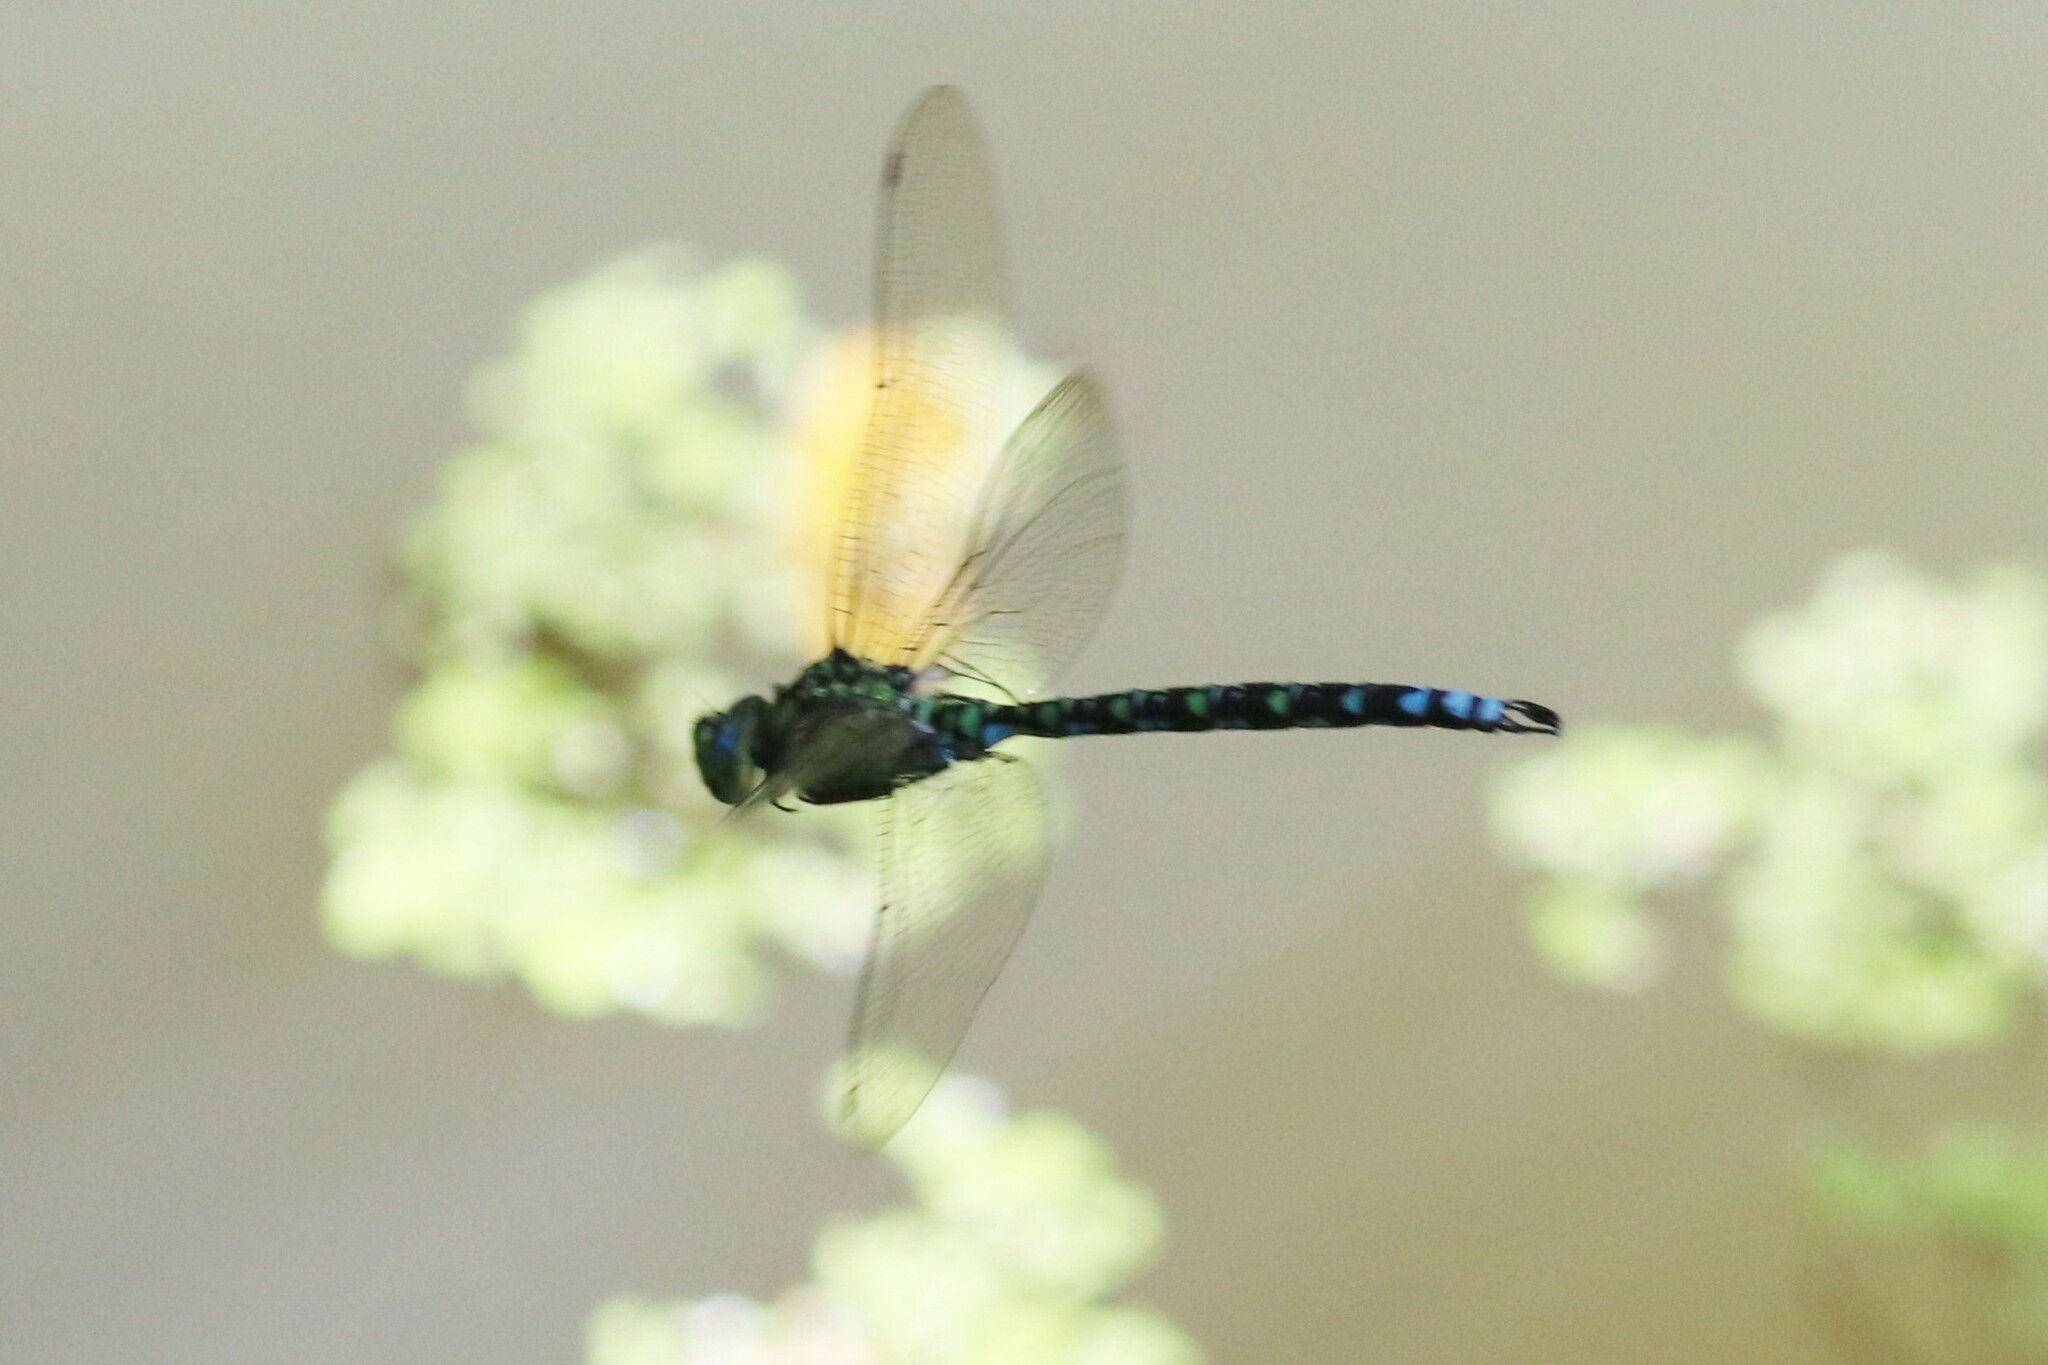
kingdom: Animalia
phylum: Arthropoda
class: Insecta
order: Odonata
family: Aeshnidae
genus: Aeshna
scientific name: Aeshna cyanea
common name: Southern hawker
